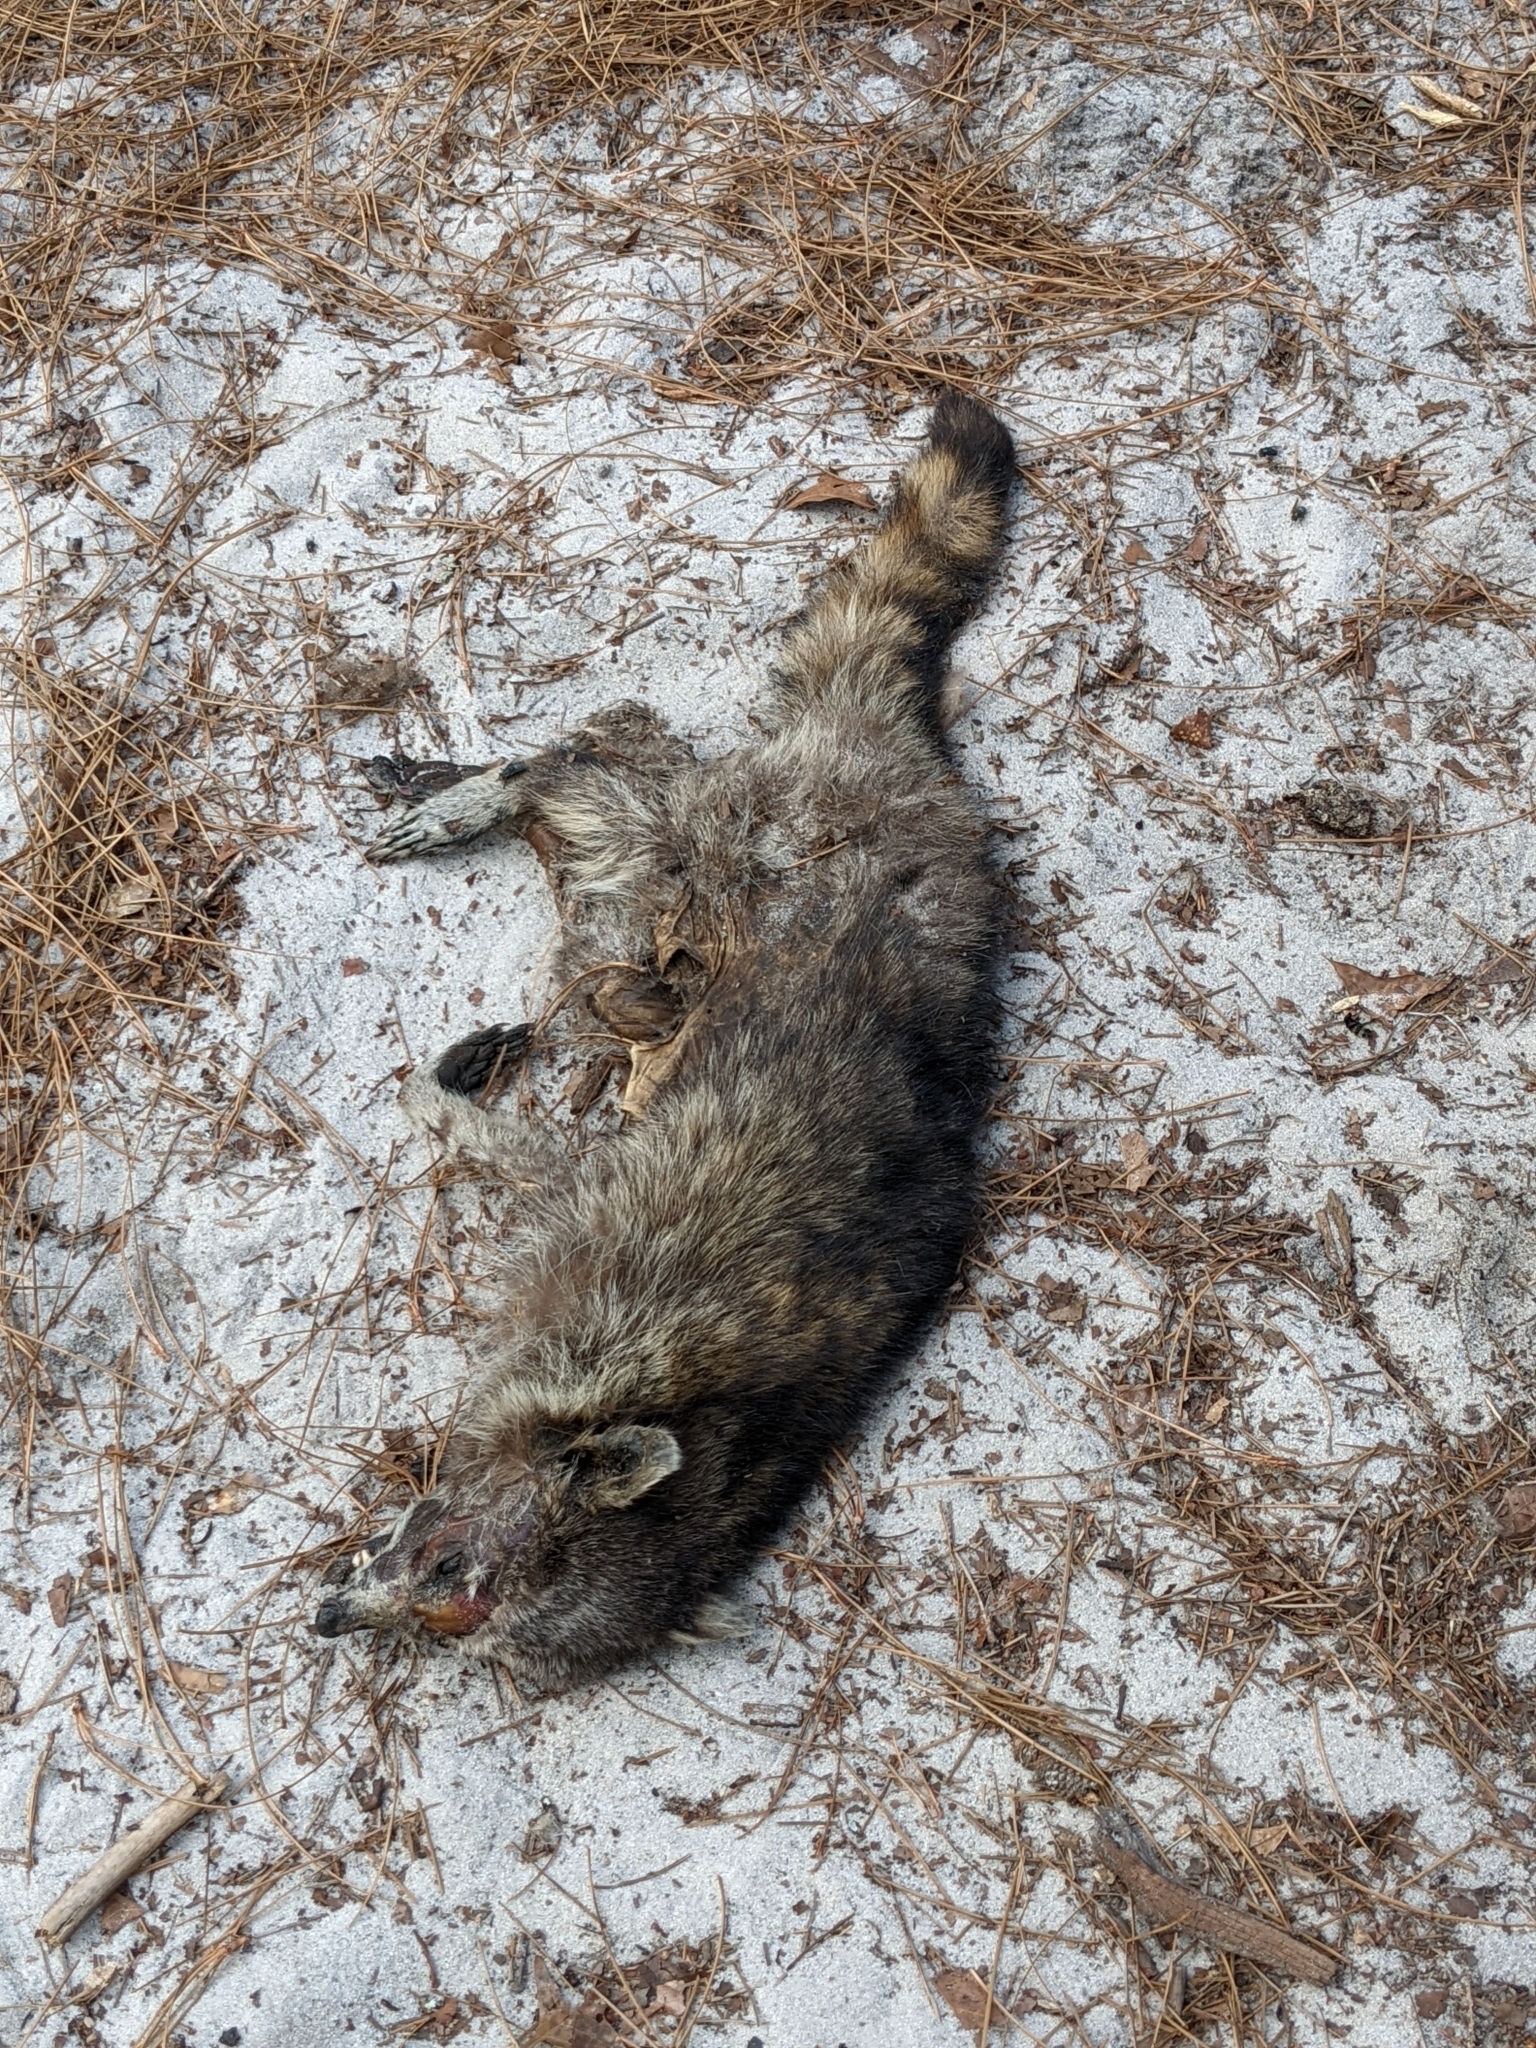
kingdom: Animalia
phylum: Chordata
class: Mammalia
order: Carnivora
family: Procyonidae
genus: Procyon
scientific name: Procyon lotor
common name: Raccoon
